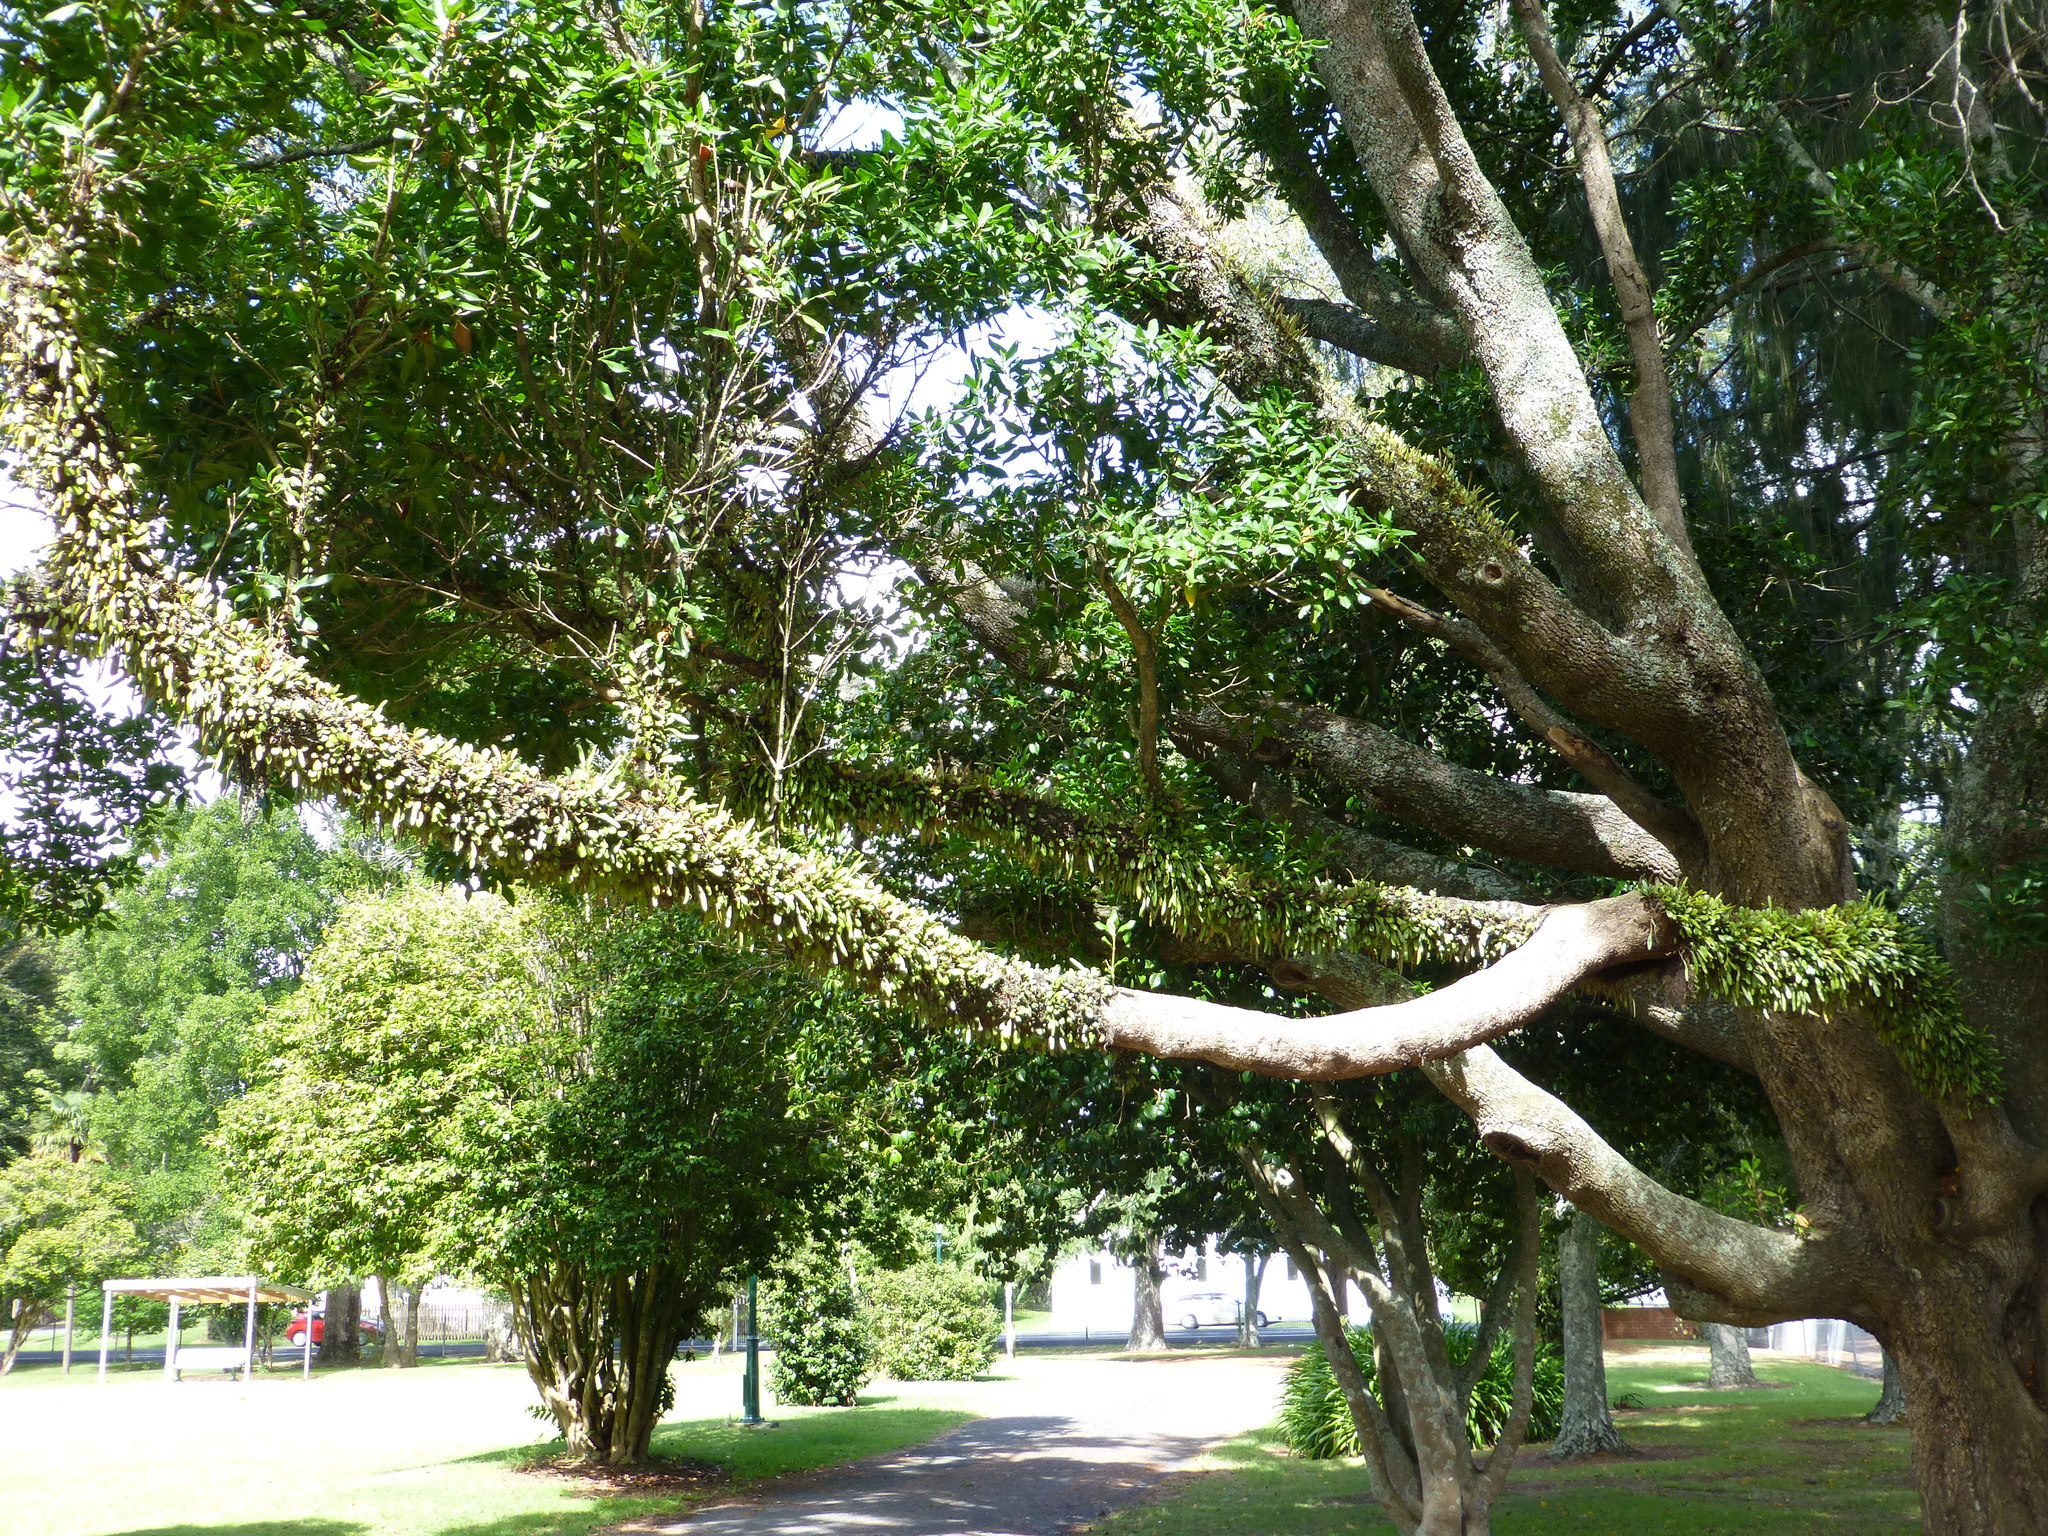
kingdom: Plantae
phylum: Tracheophyta
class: Polypodiopsida
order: Polypodiales
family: Polypodiaceae
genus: Pyrrosia
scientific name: Pyrrosia eleagnifolia
